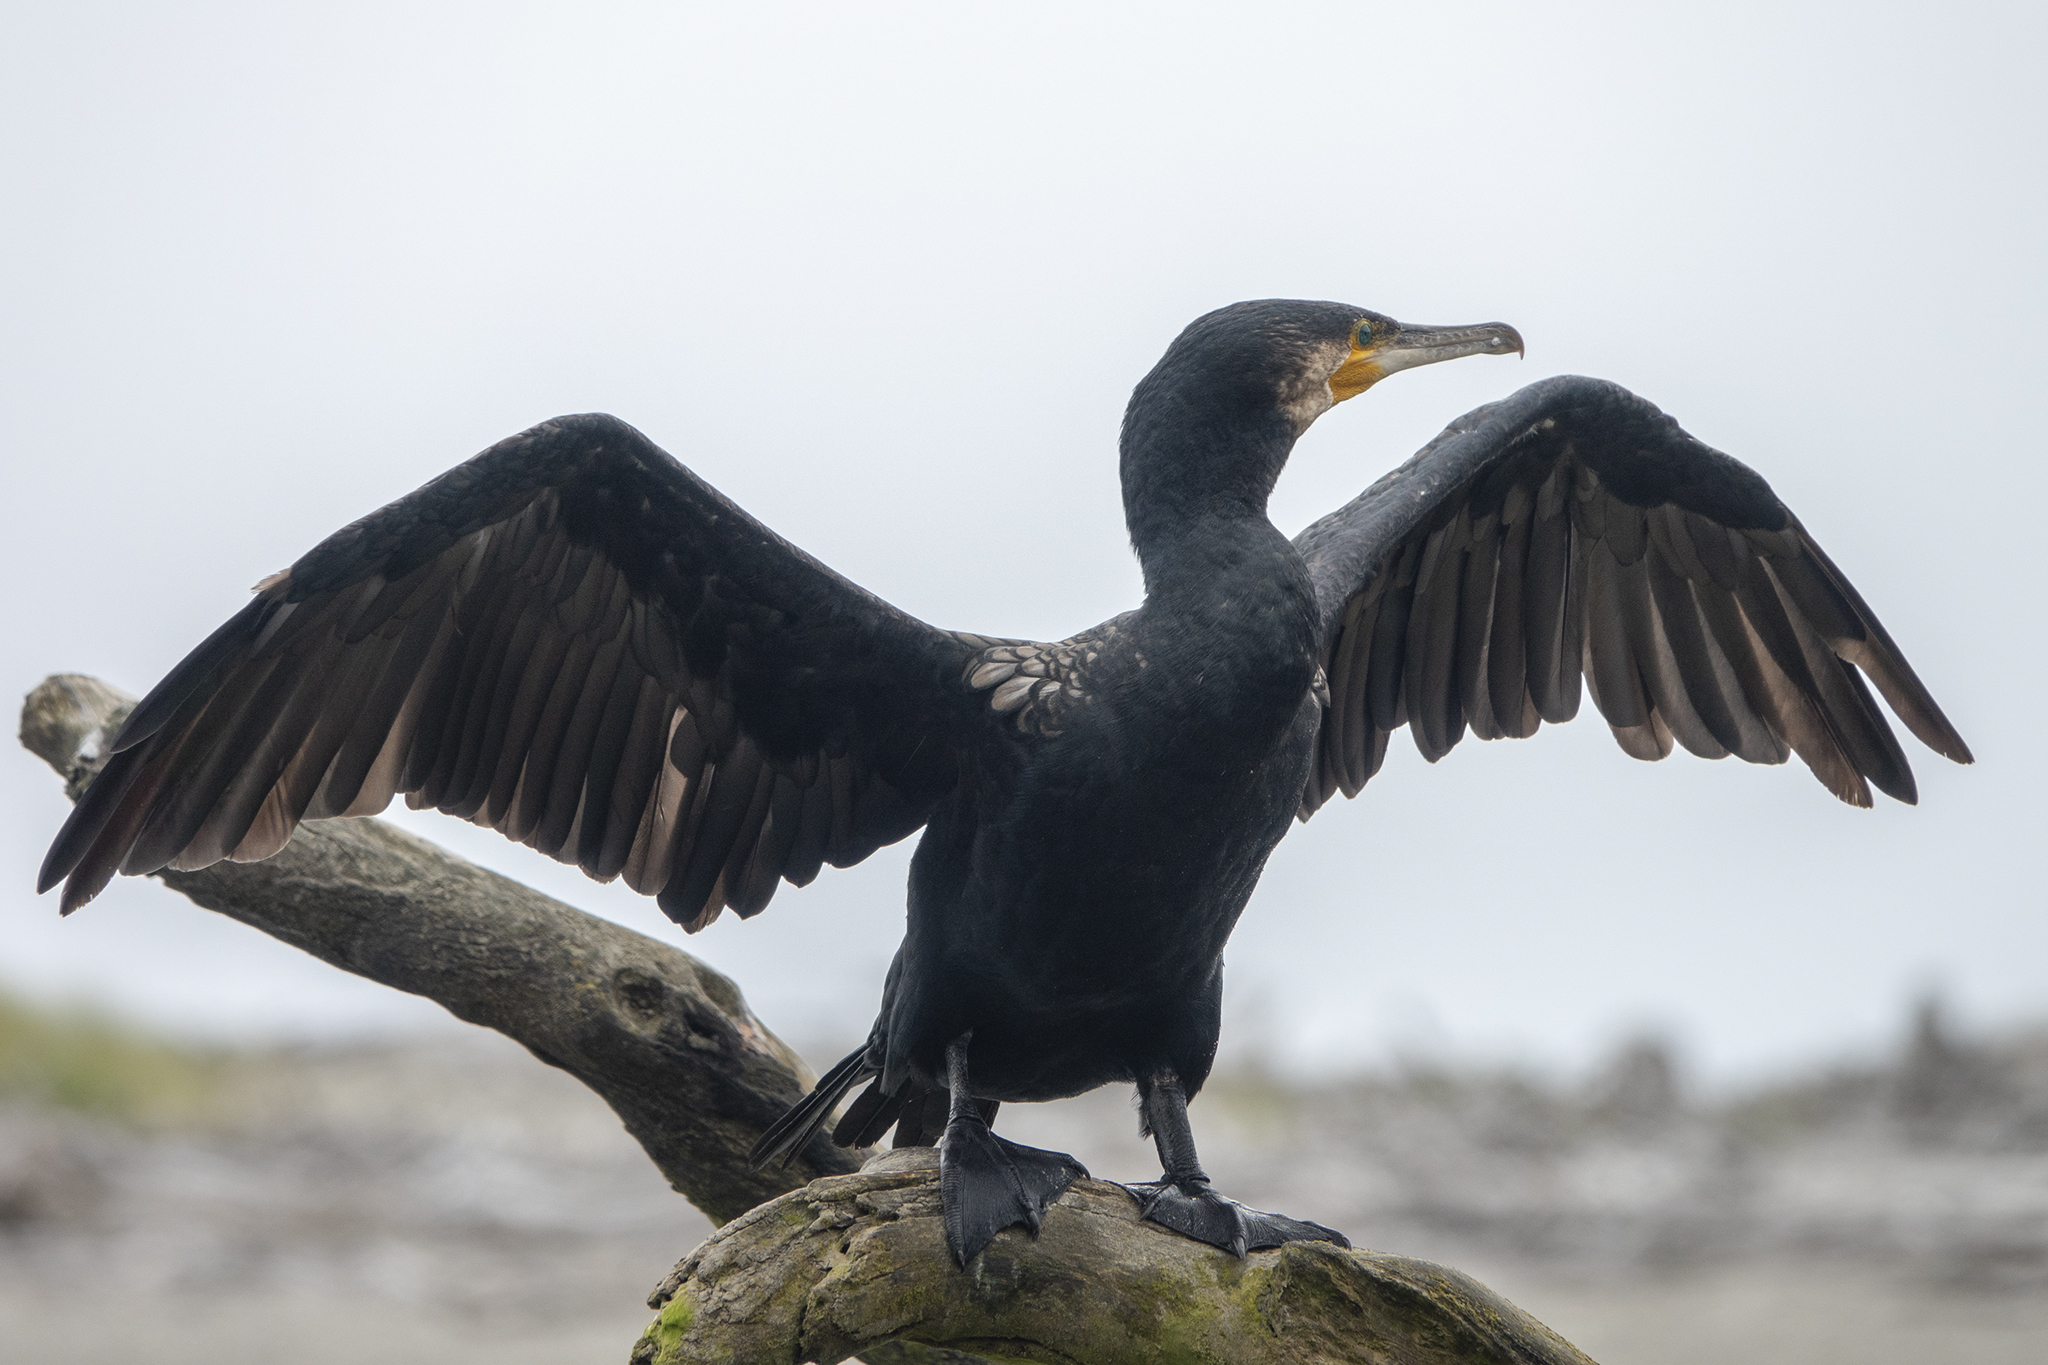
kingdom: Animalia
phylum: Chordata
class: Aves
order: Suliformes
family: Phalacrocoracidae
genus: Phalacrocorax
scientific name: Phalacrocorax carbo
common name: Great cormorant
